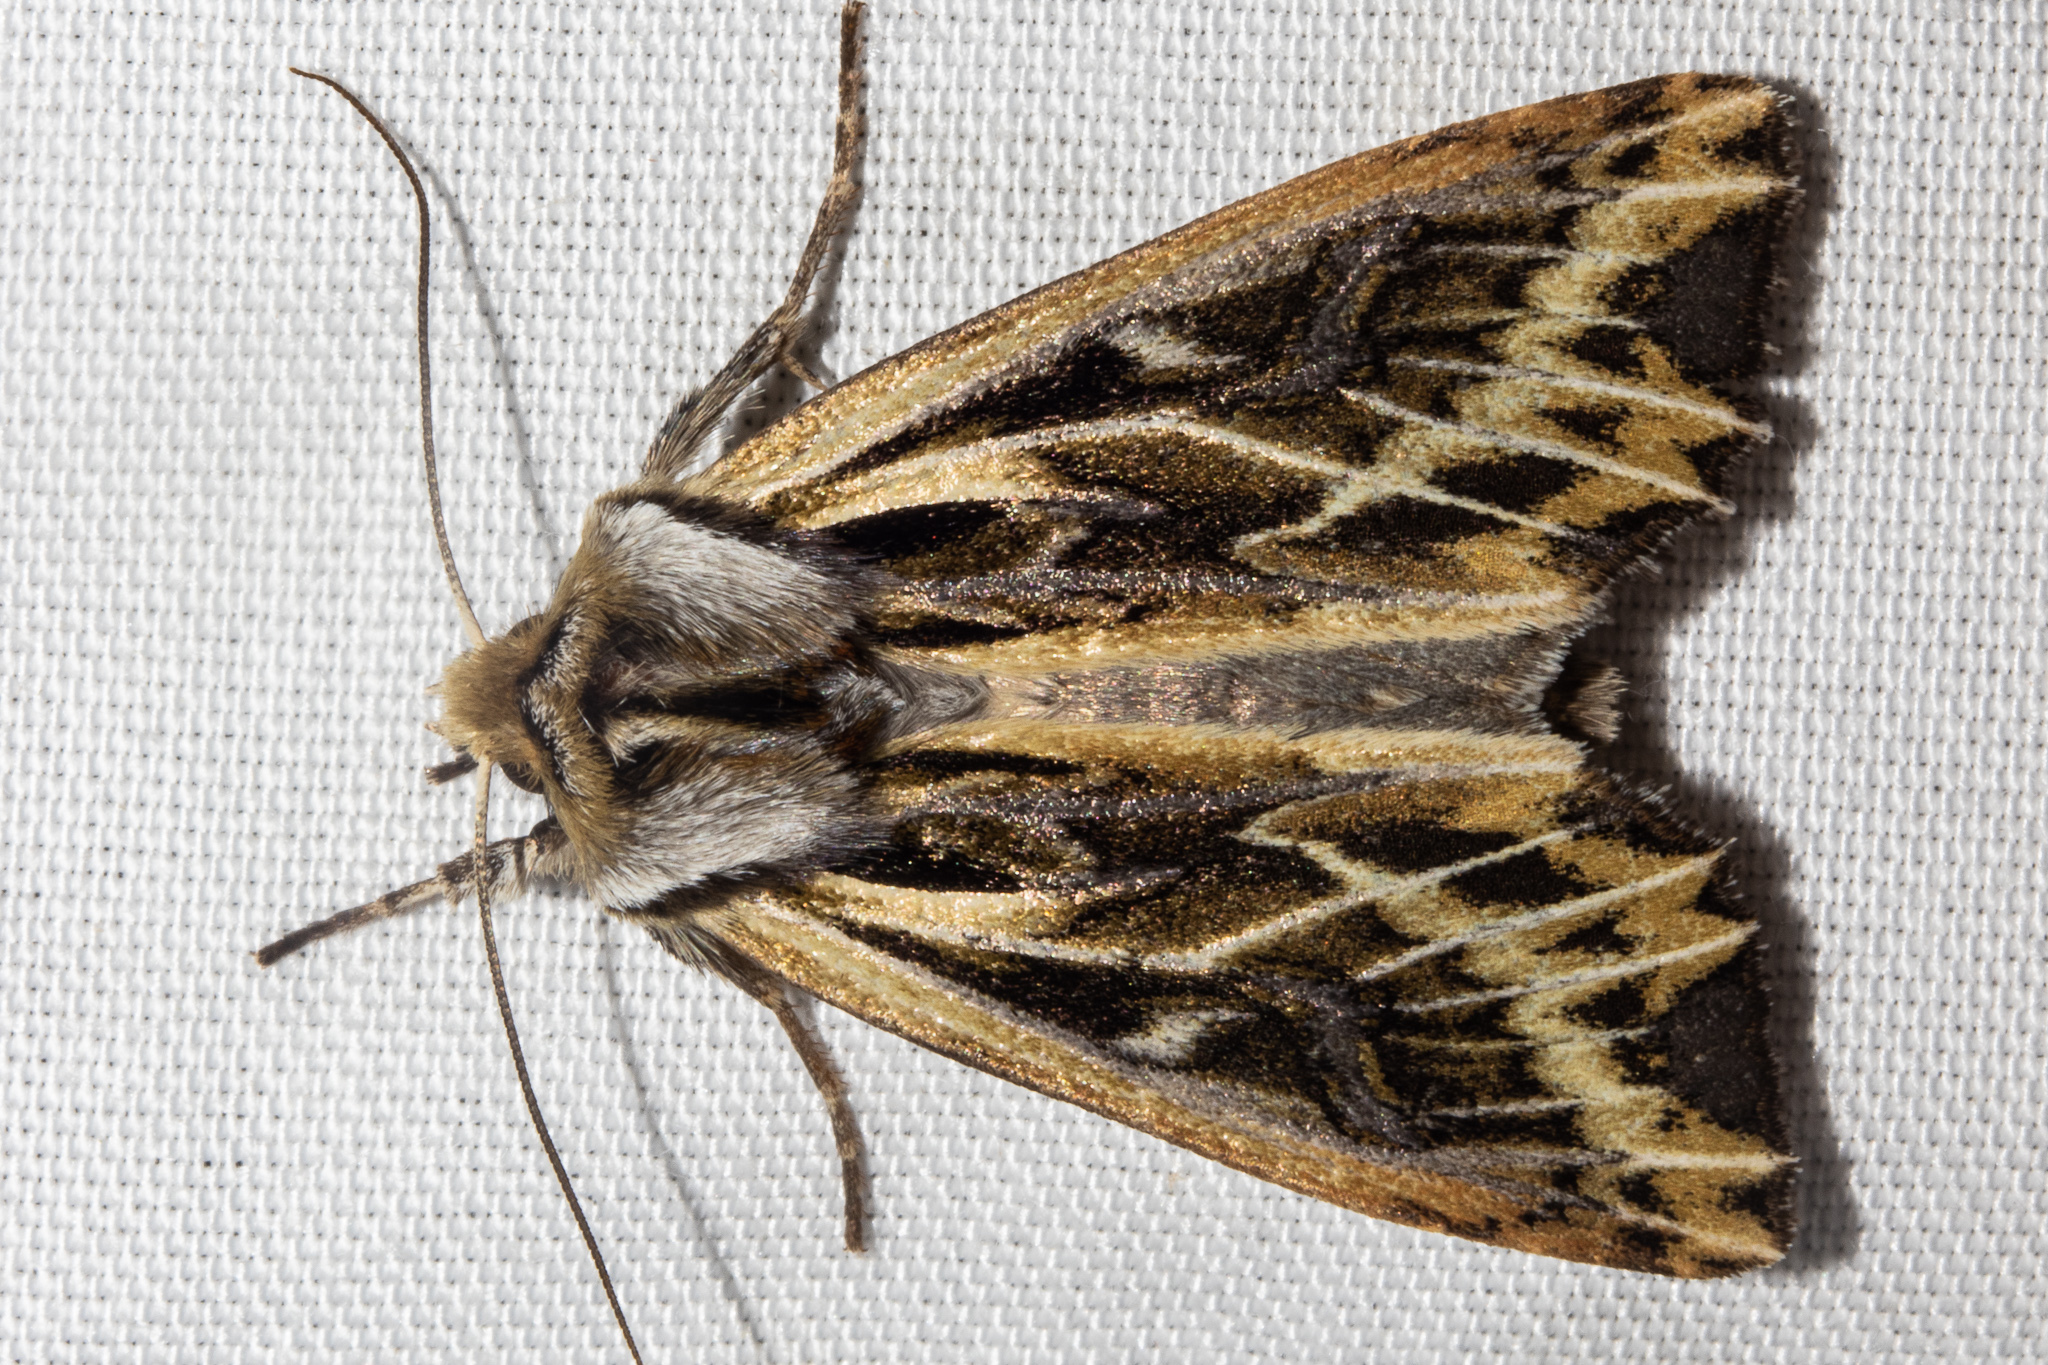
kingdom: Animalia
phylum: Arthropoda
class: Insecta
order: Lepidoptera
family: Noctuidae
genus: Ichneutica
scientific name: Ichneutica
